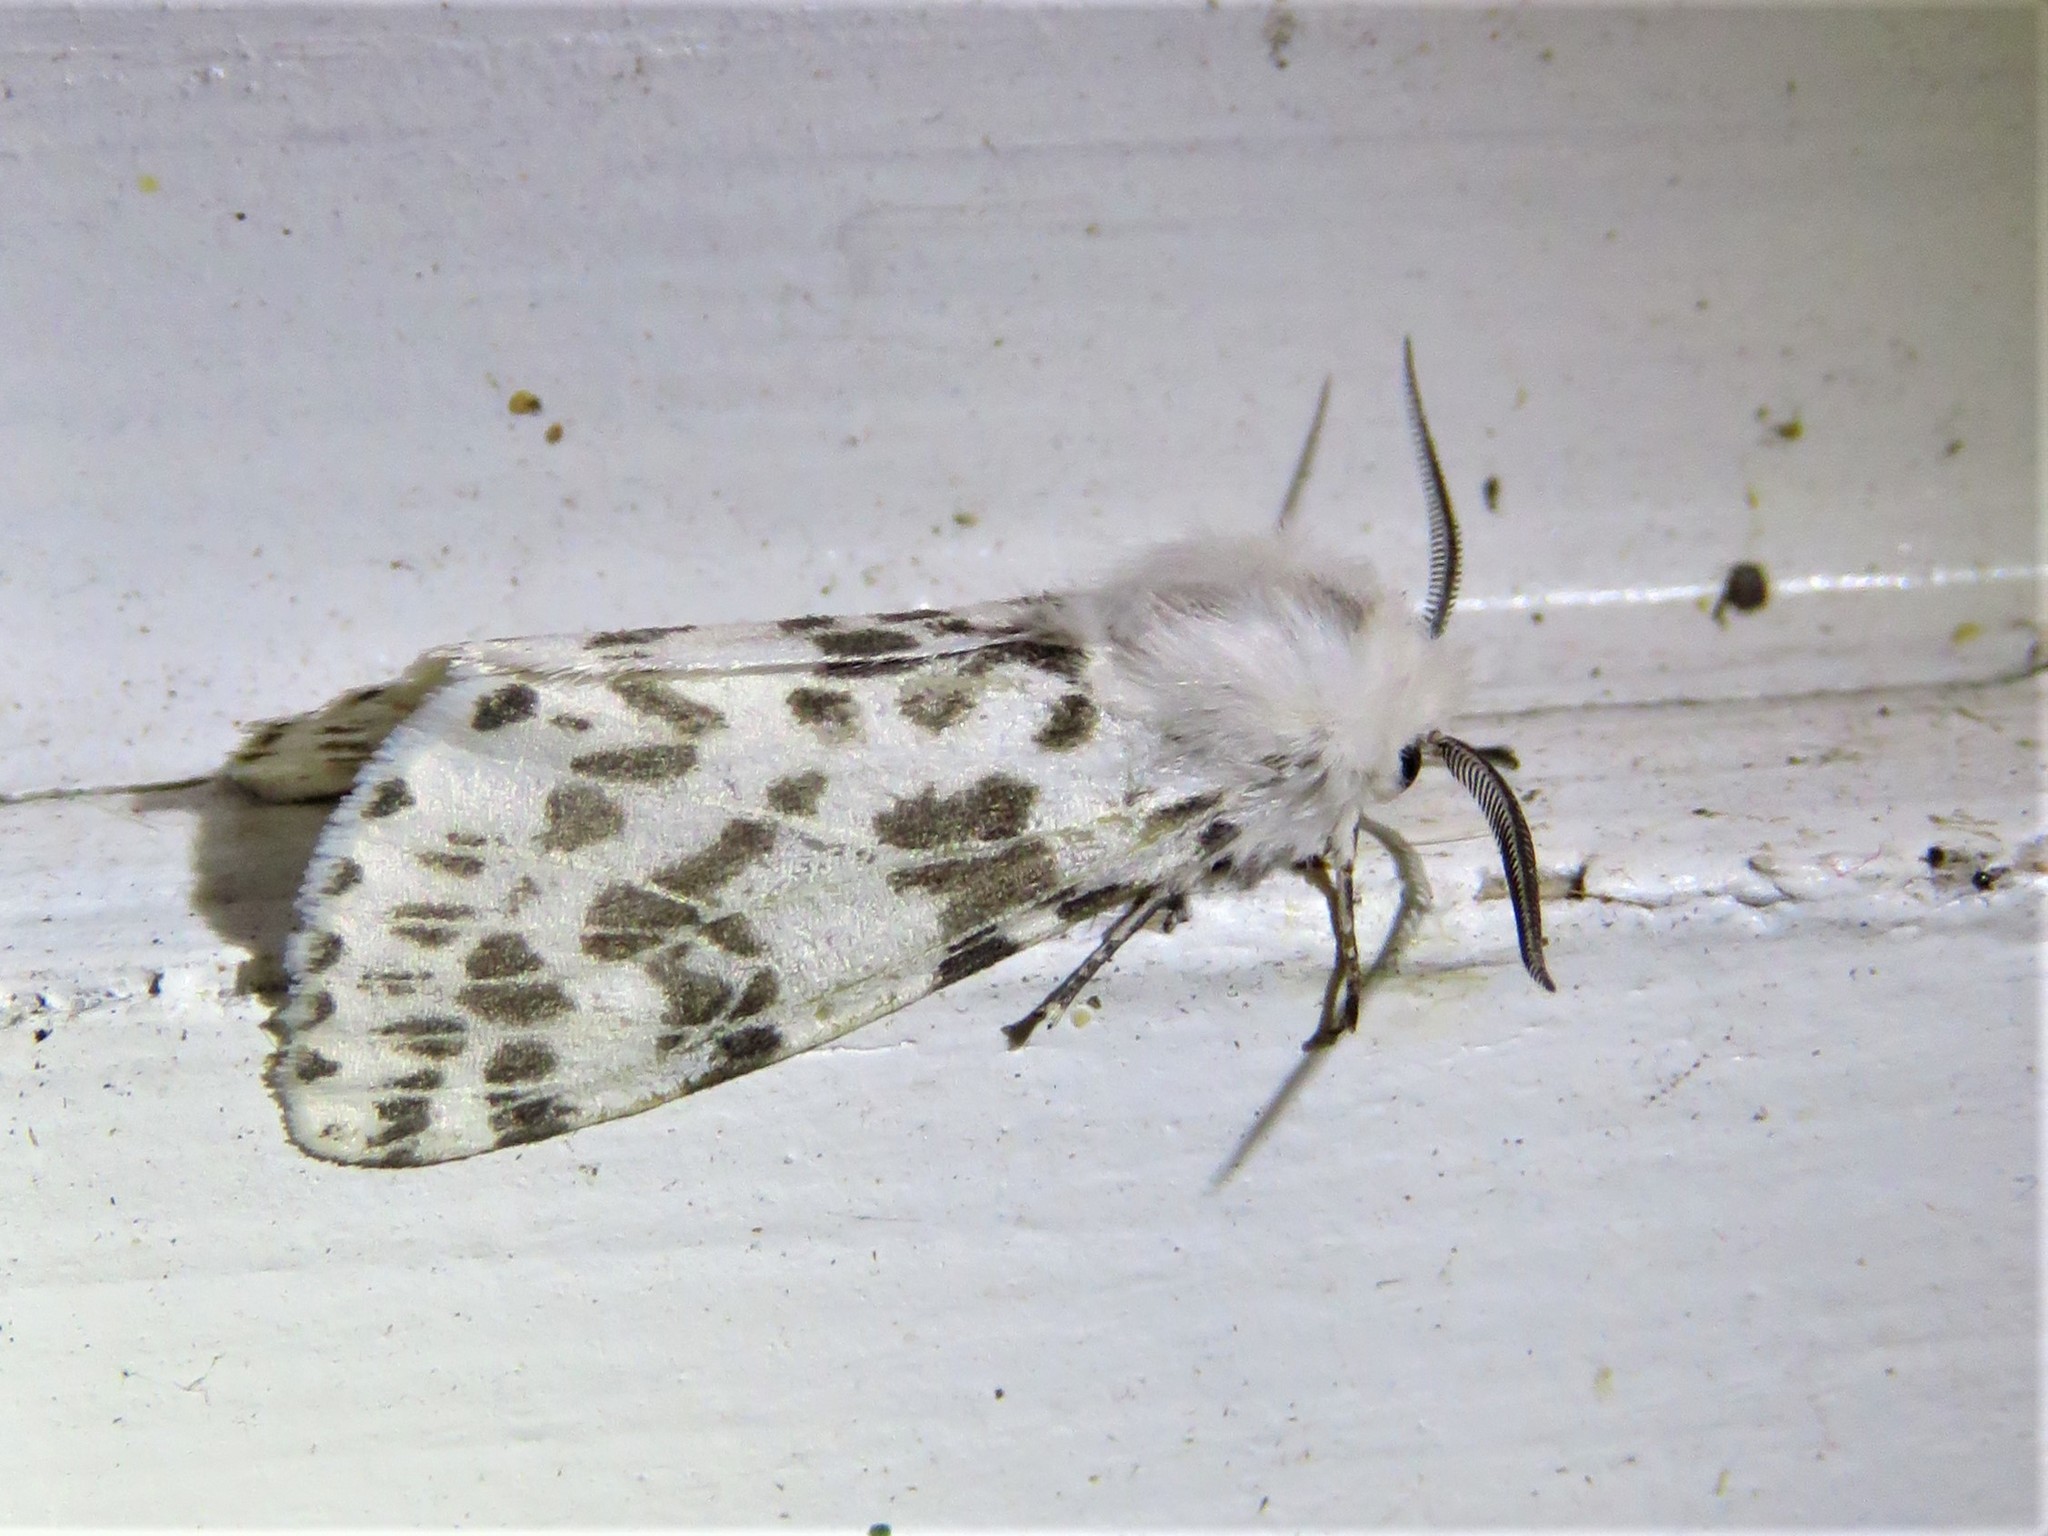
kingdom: Animalia
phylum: Arthropoda
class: Insecta
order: Lepidoptera
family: Erebidae
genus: Hyphantria
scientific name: Hyphantria cunea
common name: American white moth
